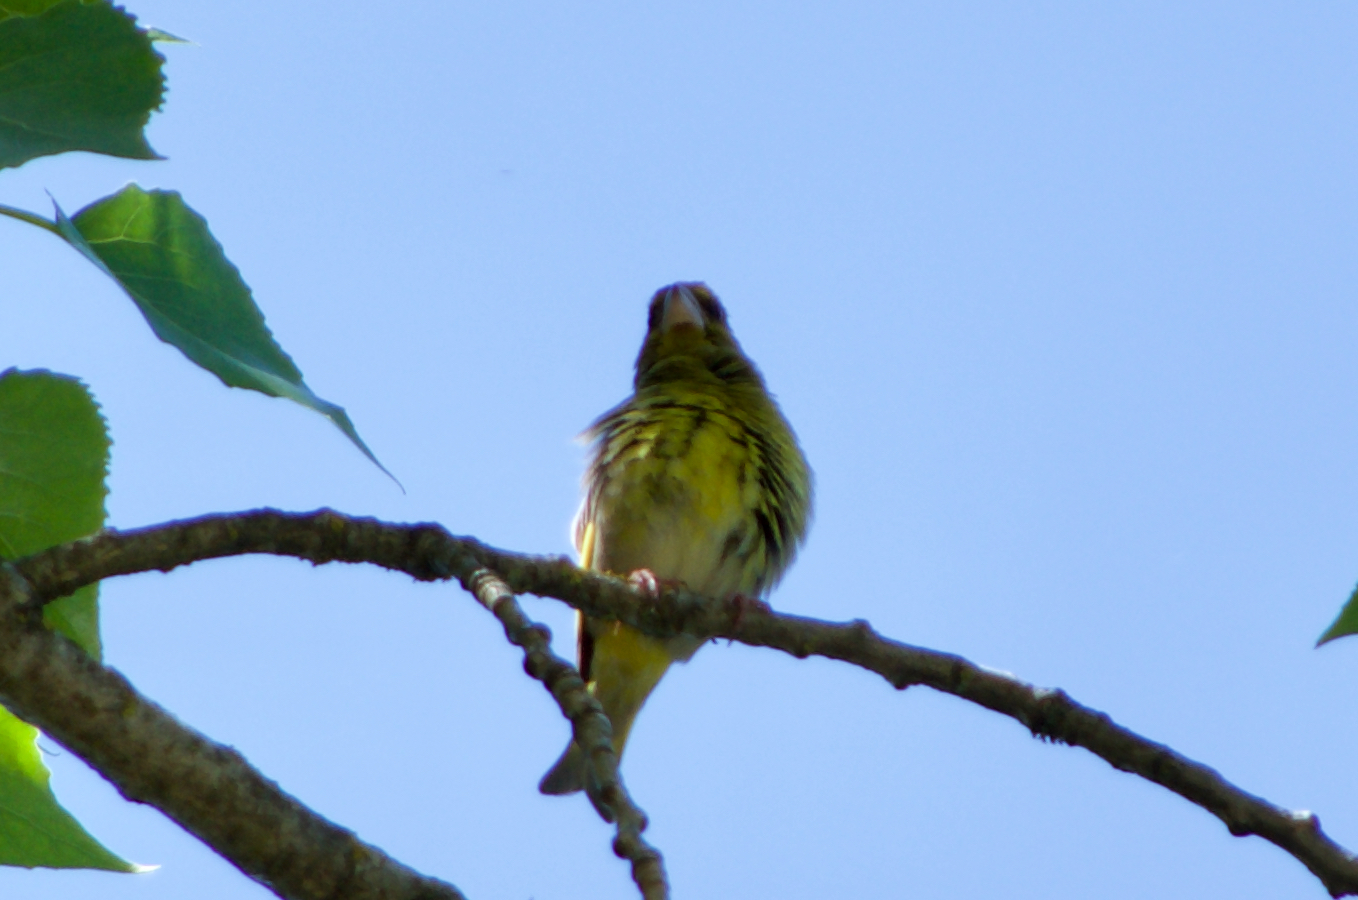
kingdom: Plantae
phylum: Tracheophyta
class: Liliopsida
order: Poales
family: Poaceae
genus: Chloris
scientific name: Chloris chloris
